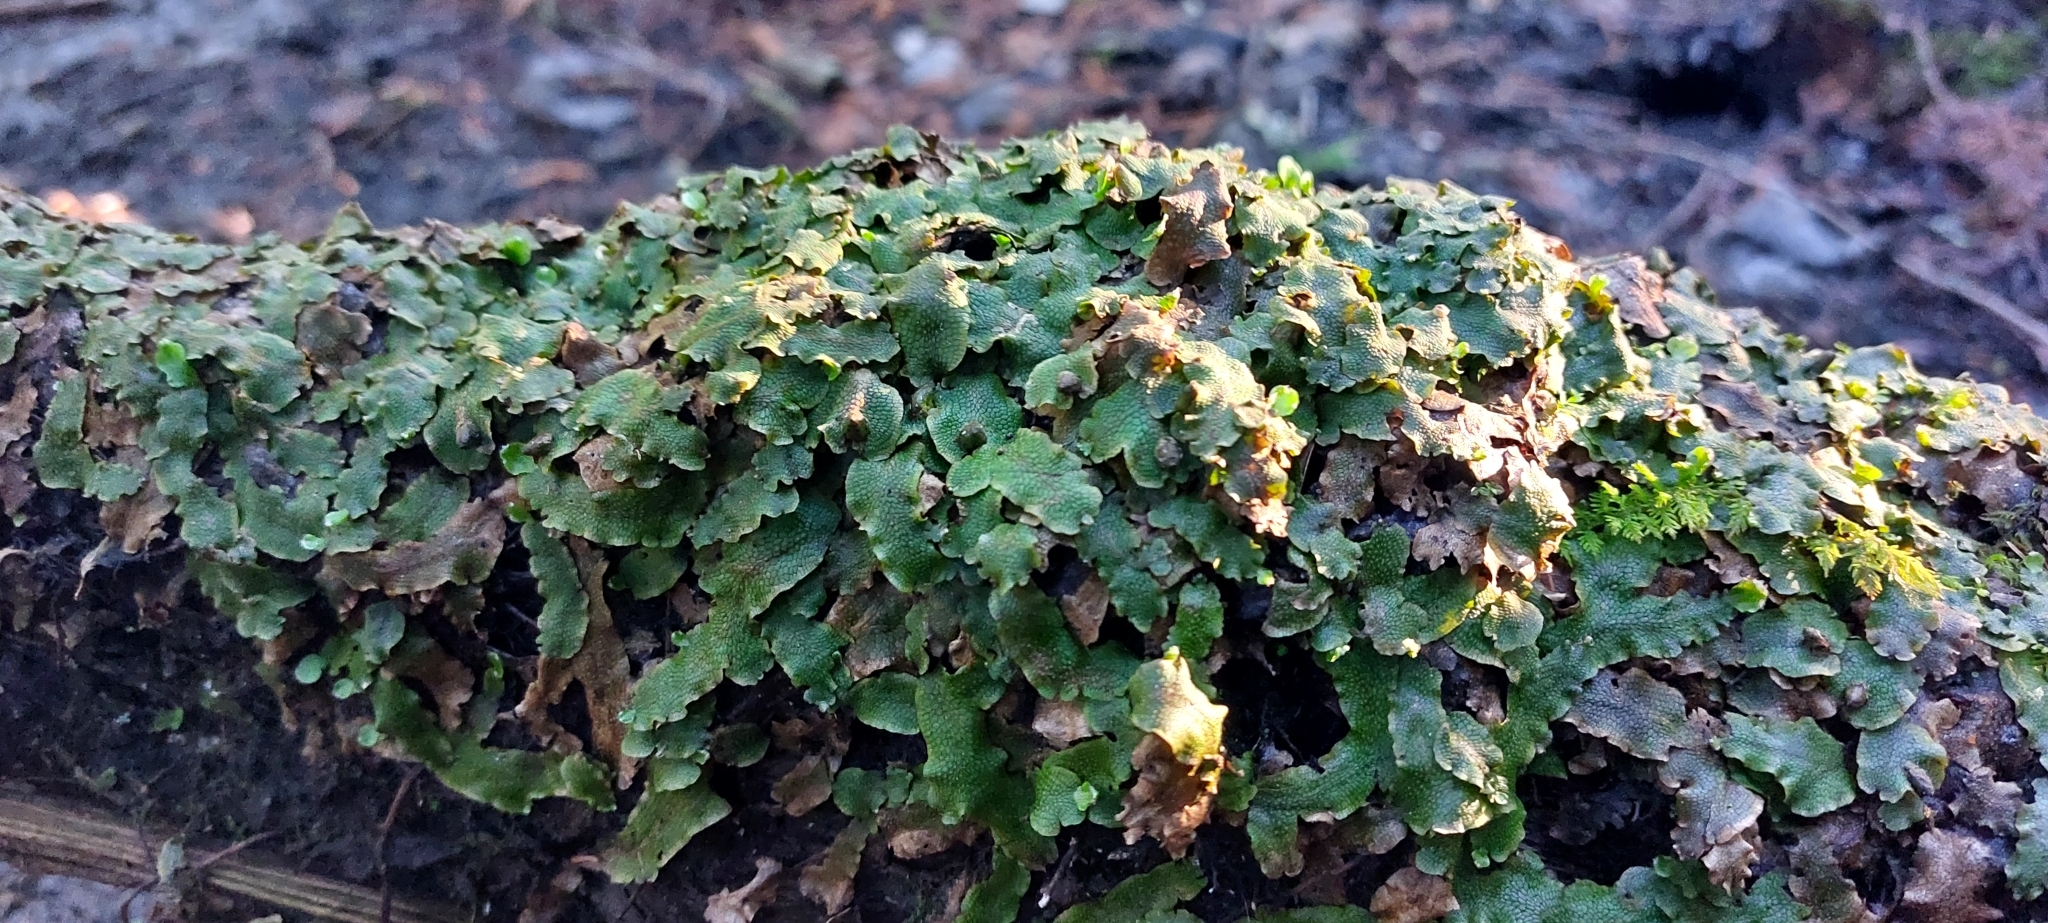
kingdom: Plantae
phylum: Marchantiophyta
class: Marchantiopsida
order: Marchantiales
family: Conocephalaceae
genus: Conocephalum
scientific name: Conocephalum salebrosum
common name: Cat-tongue liverwort
